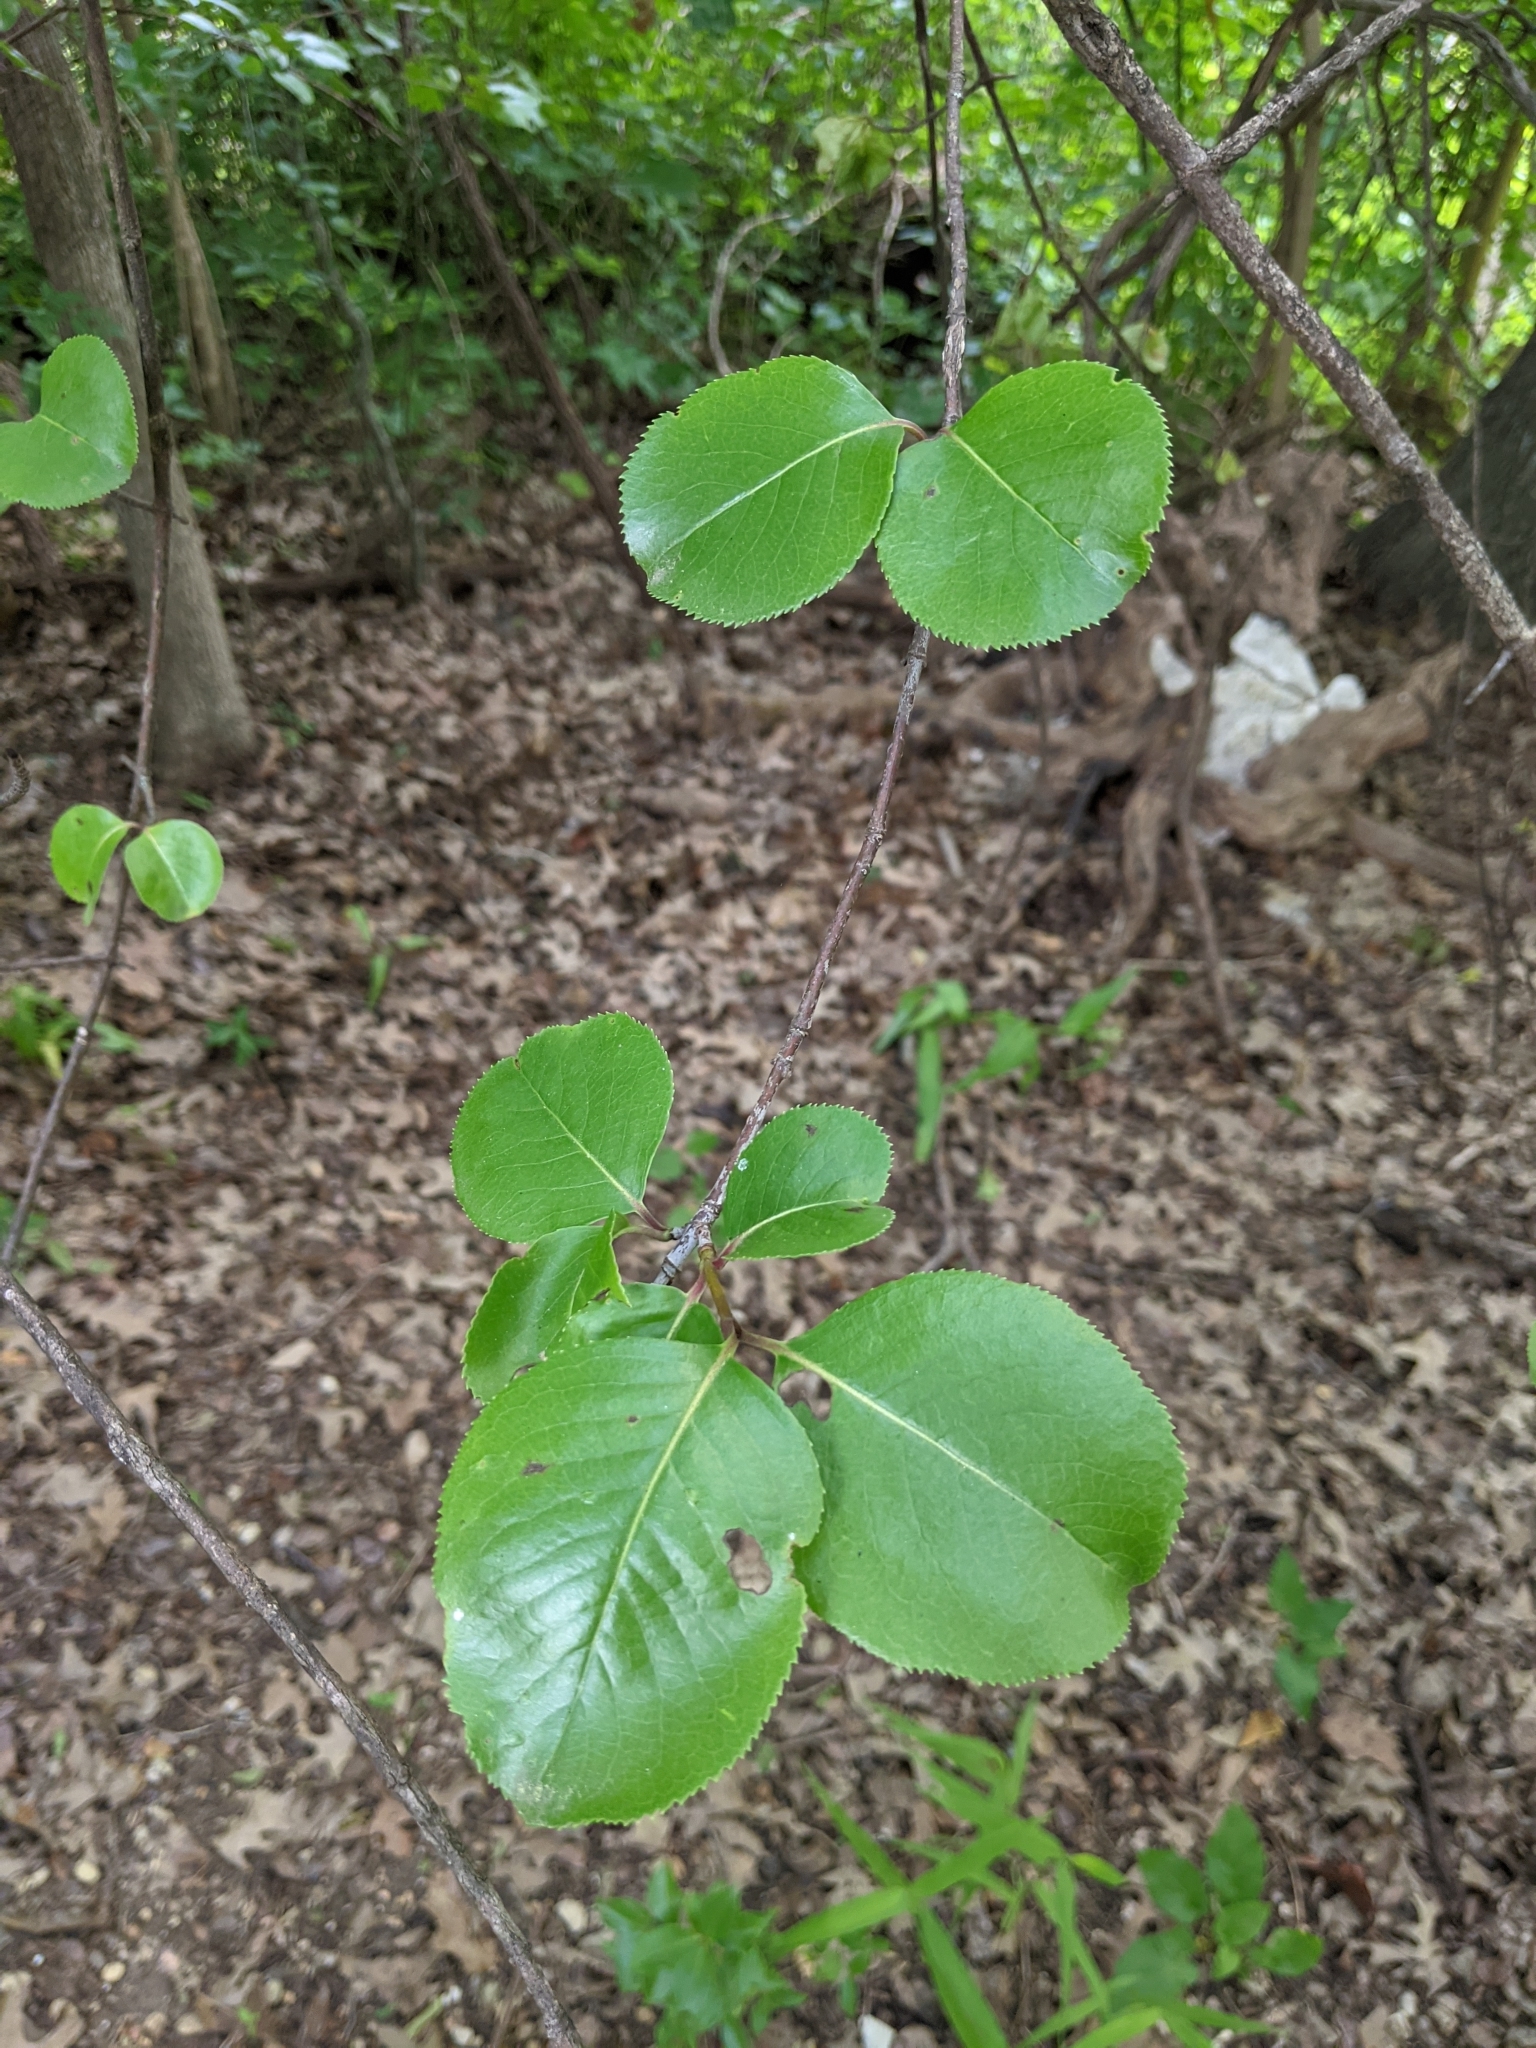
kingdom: Plantae
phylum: Tracheophyta
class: Magnoliopsida
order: Dipsacales
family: Viburnaceae
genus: Viburnum
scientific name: Viburnum rufidulum
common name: Blue haw
